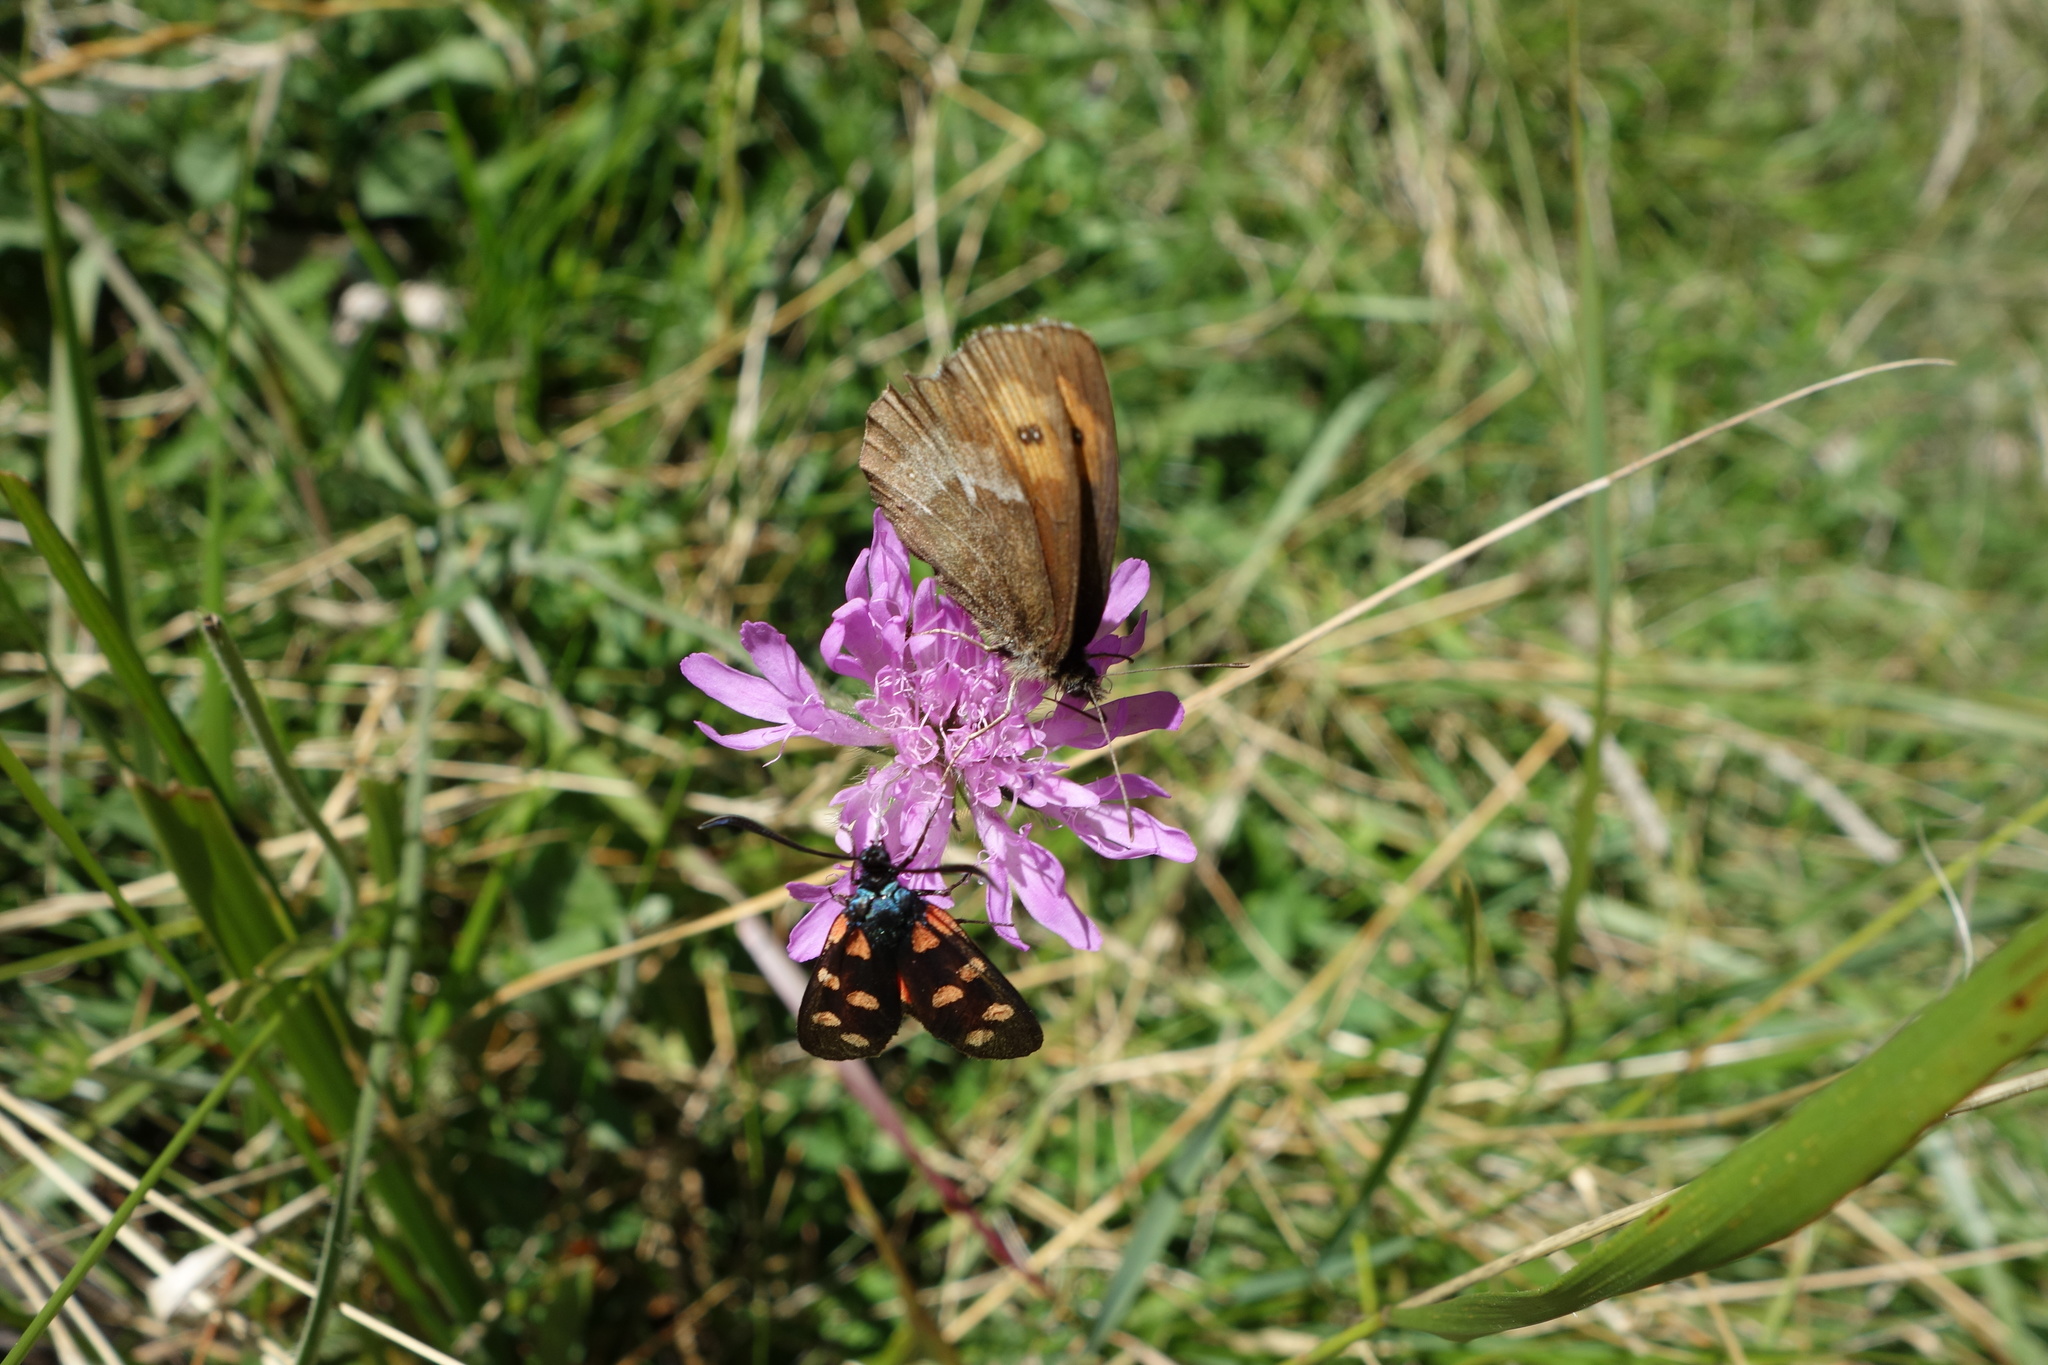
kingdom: Animalia
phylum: Arthropoda
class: Insecta
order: Lepidoptera
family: Nymphalidae
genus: Erebia
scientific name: Erebia euryale
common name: Large ringlet
